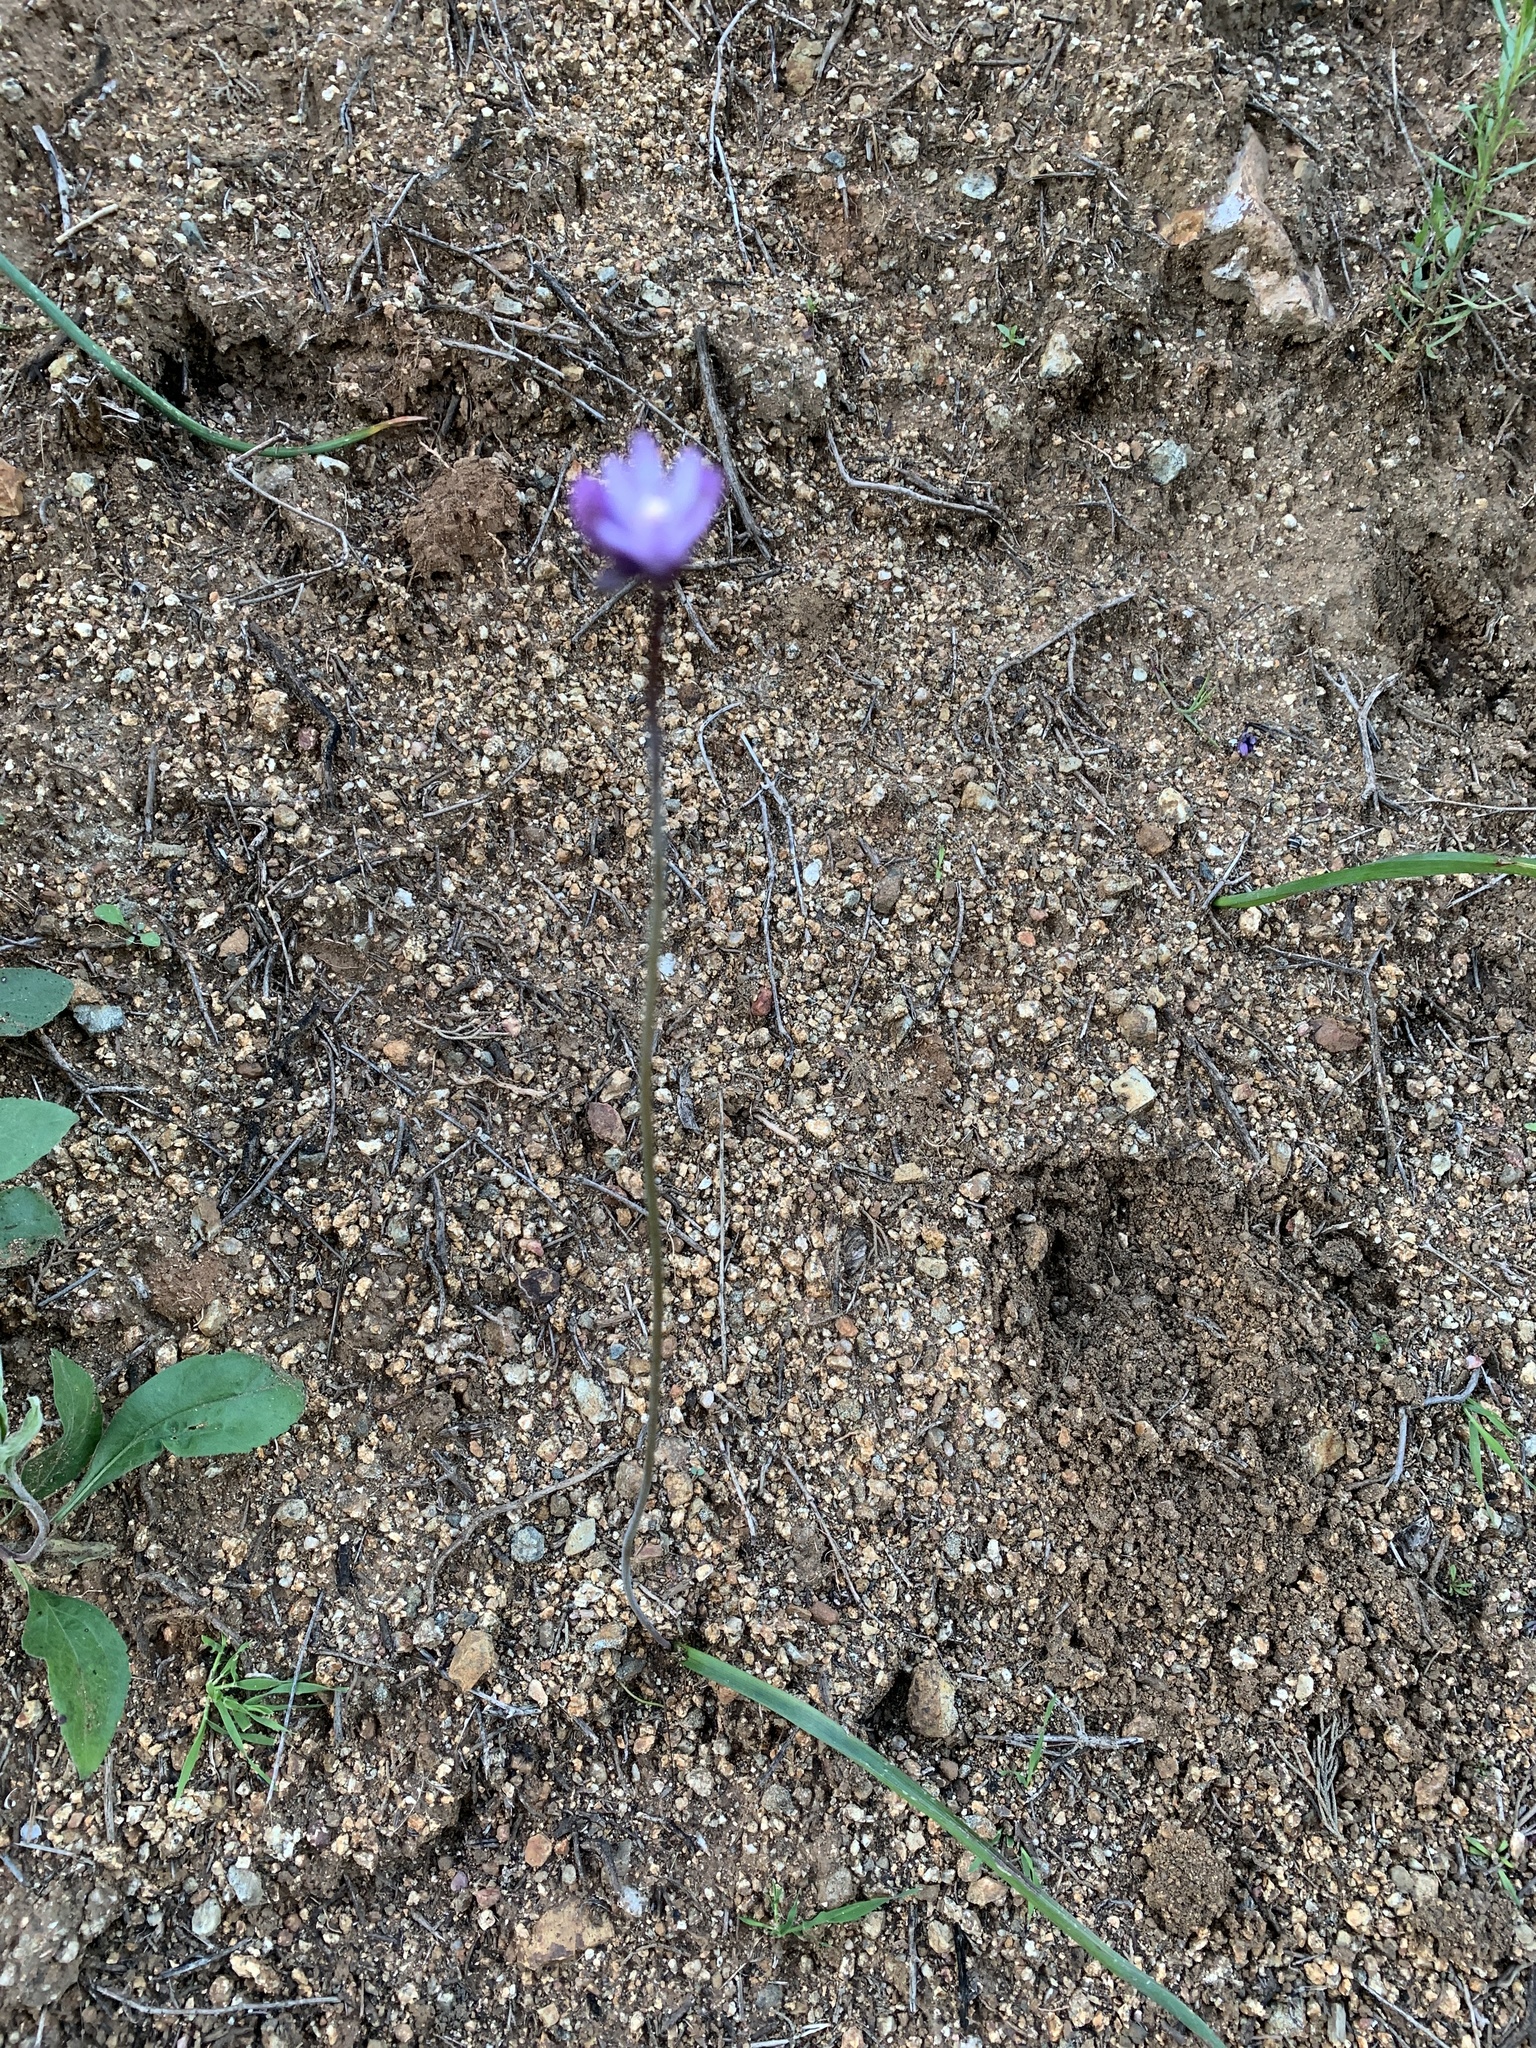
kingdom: Plantae
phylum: Tracheophyta
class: Liliopsida
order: Asparagales
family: Asparagaceae
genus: Dipterostemon
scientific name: Dipterostemon capitatus
